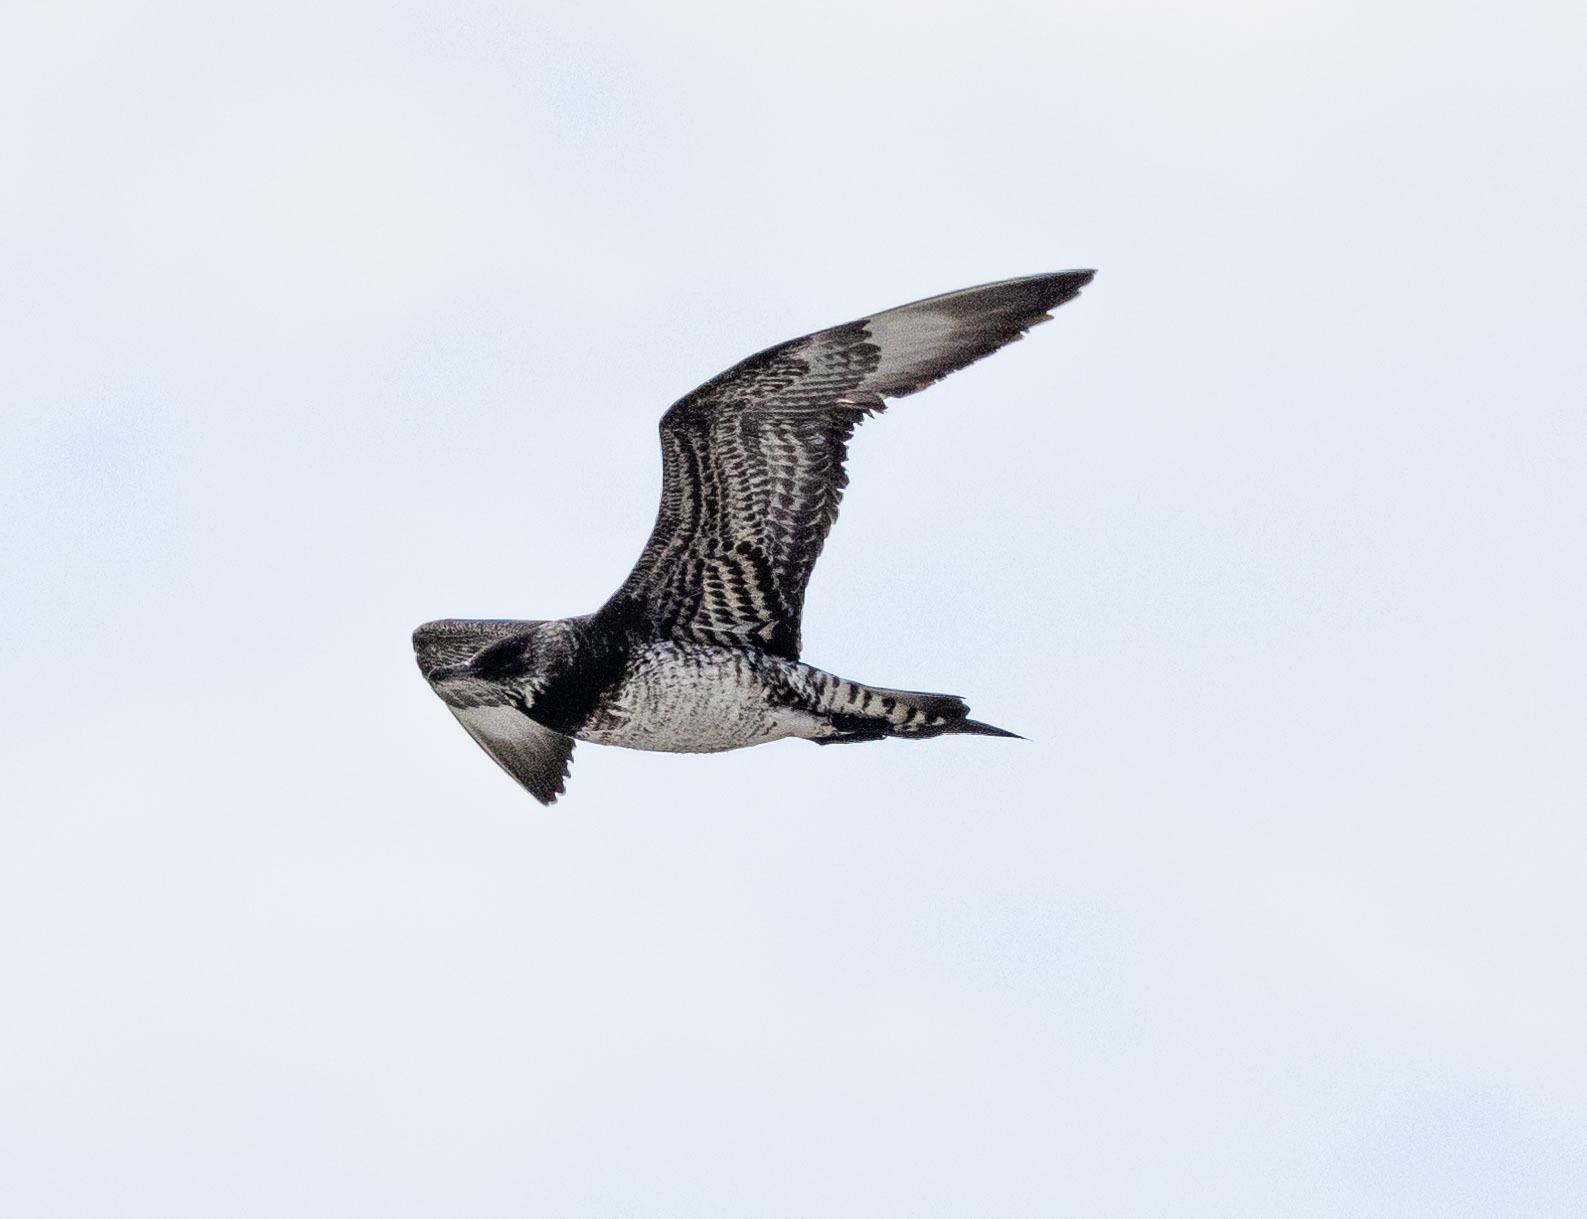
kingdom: Animalia
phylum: Chordata
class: Aves
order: Charadriiformes
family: Stercorariidae
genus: Stercorarius
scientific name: Stercorarius parasiticus
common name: Parasitic jaeger
